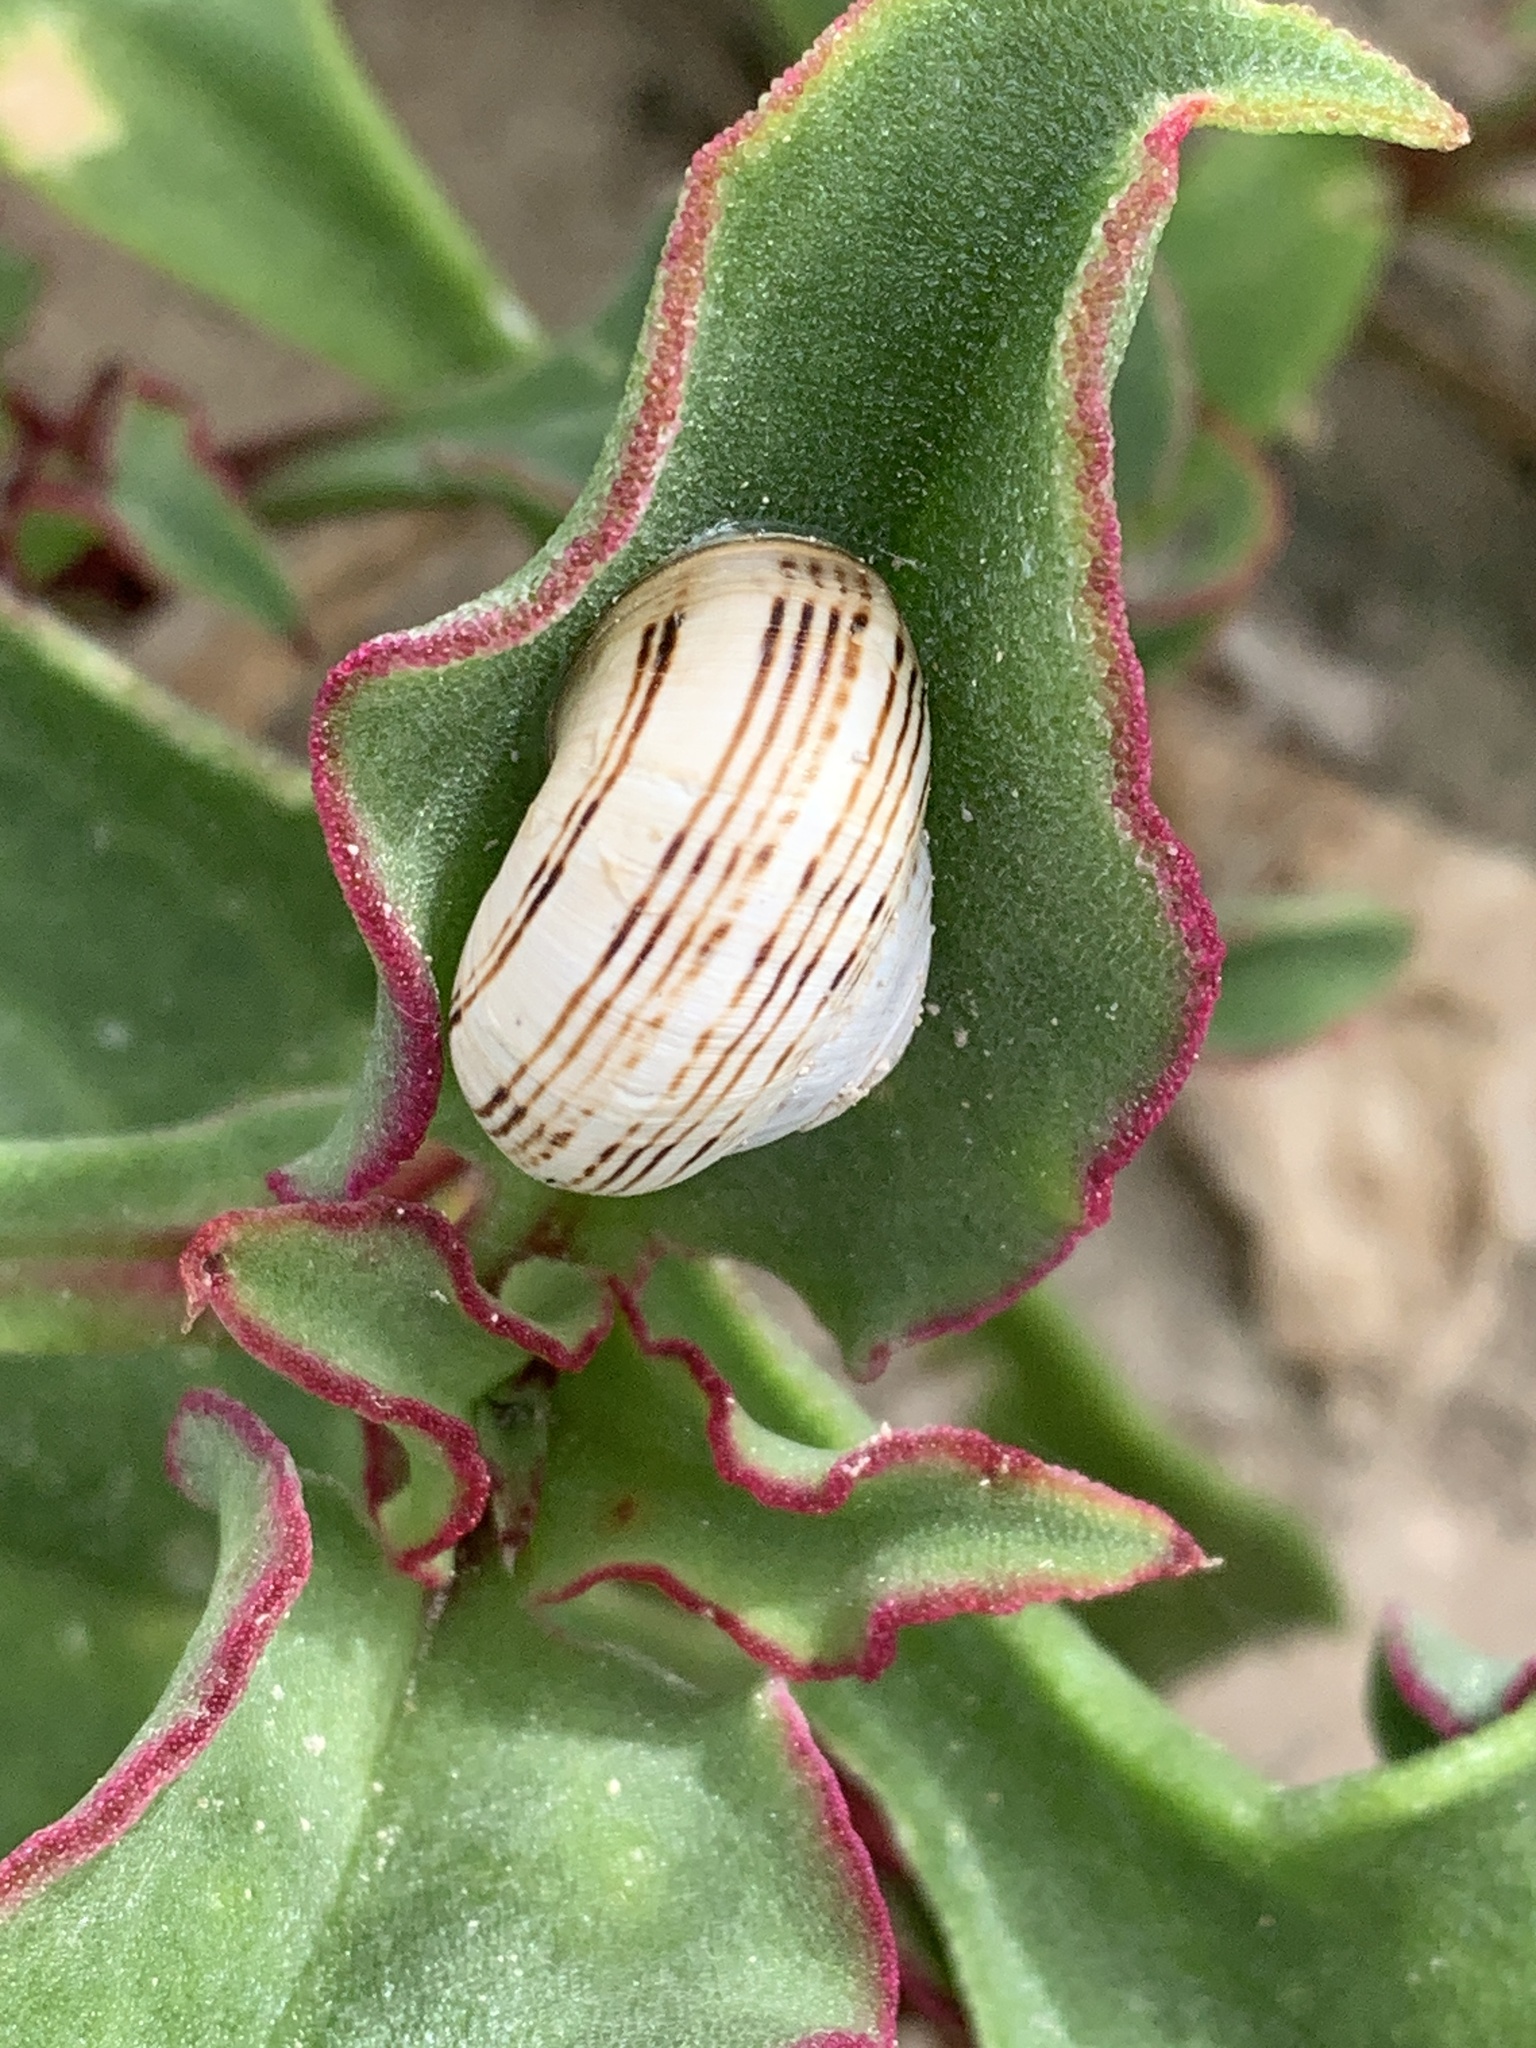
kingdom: Animalia
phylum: Mollusca
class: Gastropoda
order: Stylommatophora
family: Helicidae
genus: Theba
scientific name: Theba pisana
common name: White snail
